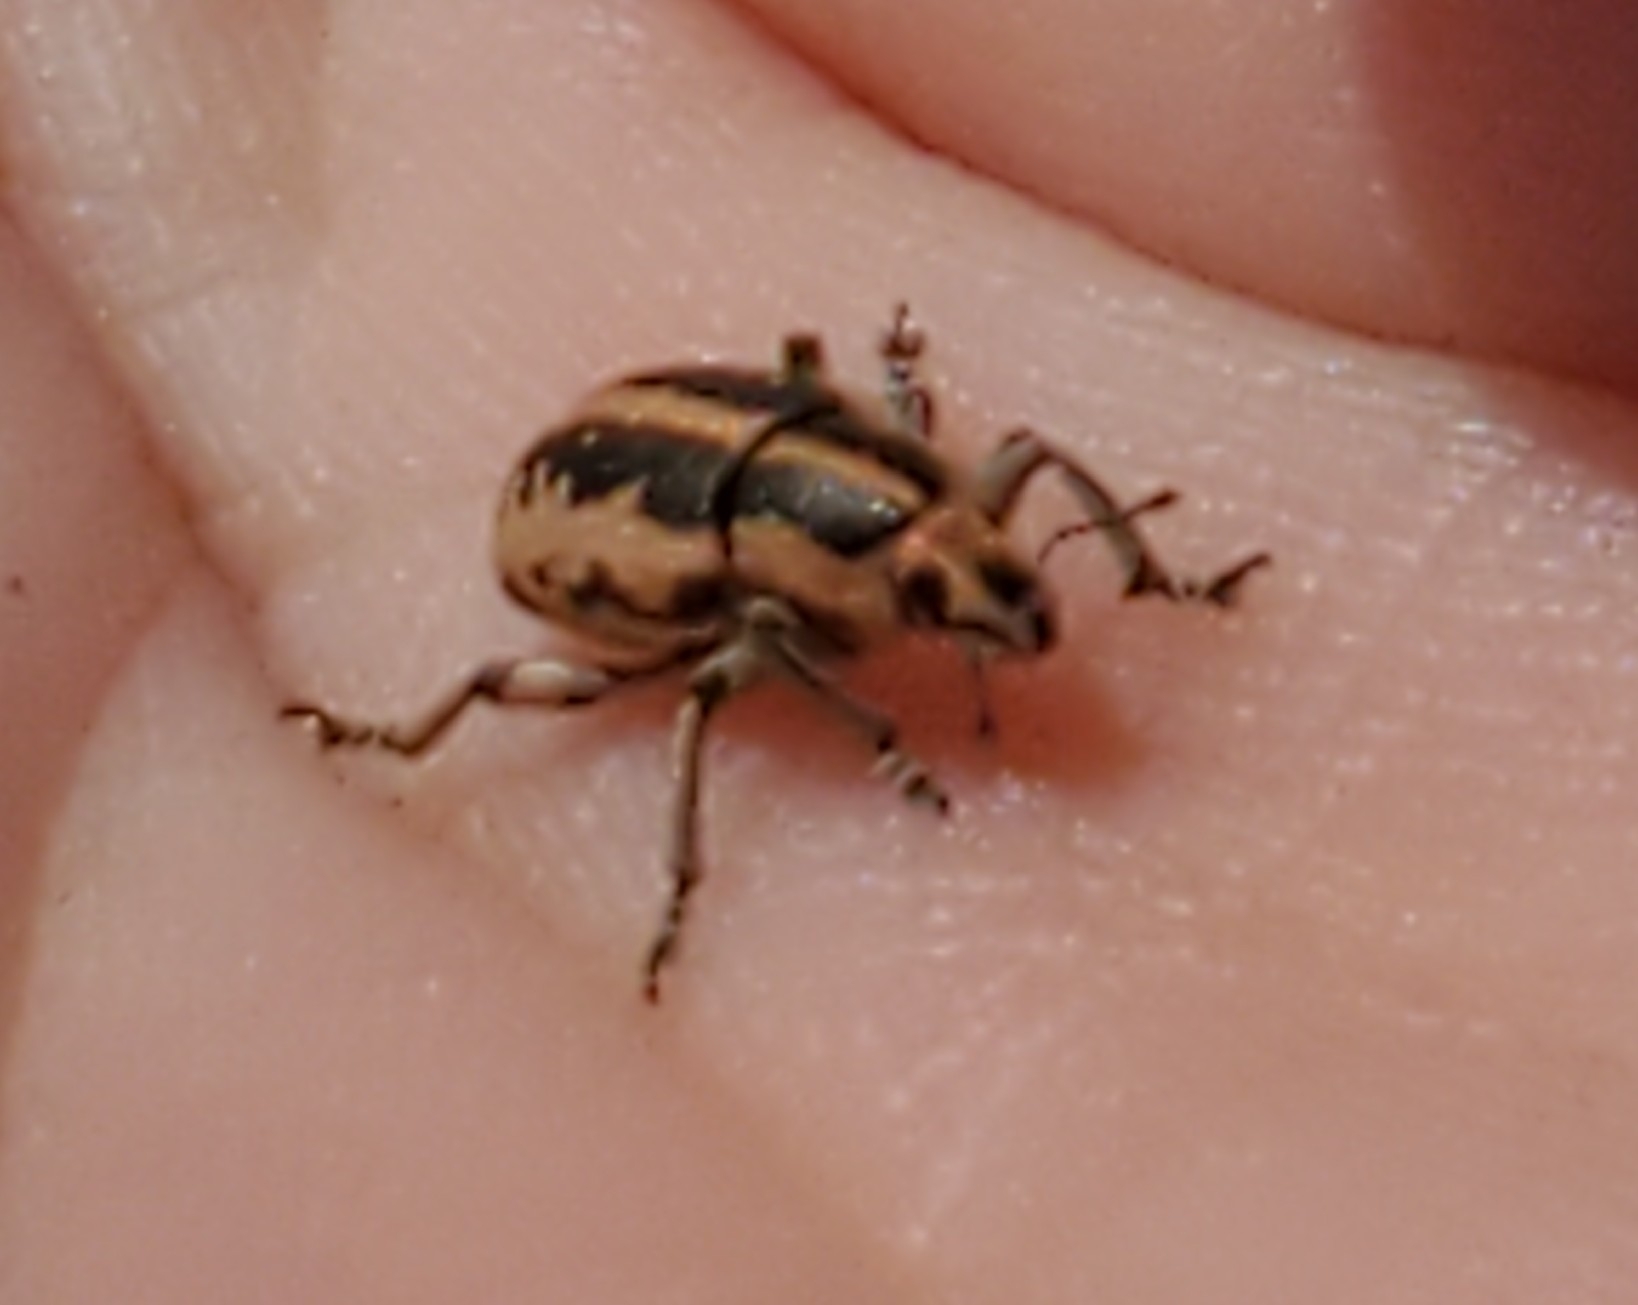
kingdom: Animalia
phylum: Arthropoda
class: Insecta
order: Coleoptera
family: Curculionidae
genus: Eudiagogus
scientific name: Eudiagogus rosenschoeldi
